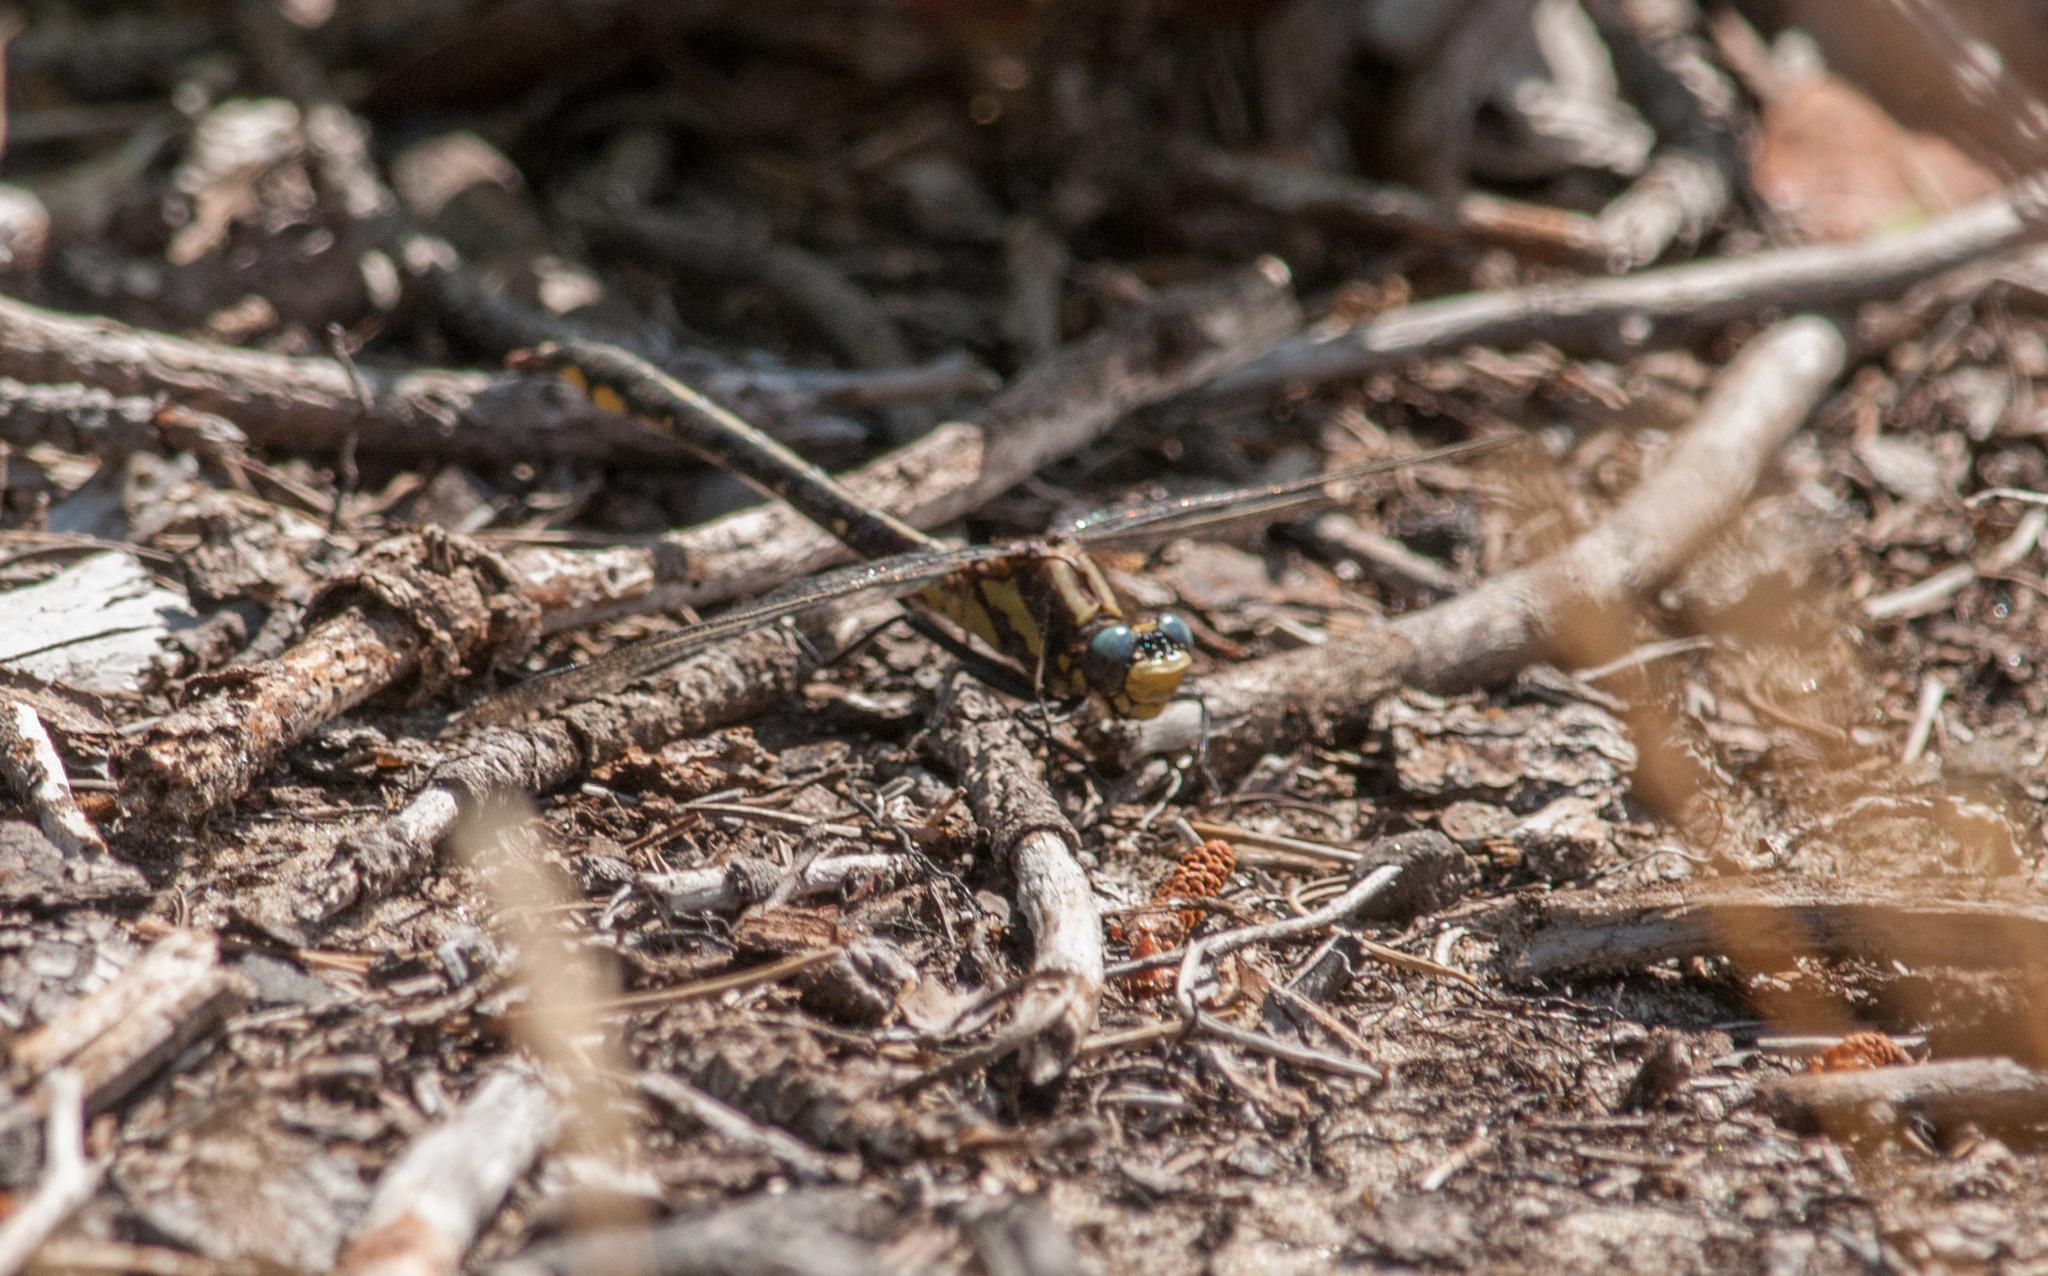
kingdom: Animalia
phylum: Arthropoda
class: Insecta
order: Odonata
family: Gomphidae
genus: Phanogomphus
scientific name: Phanogomphus kurilis
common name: Pacific clubtail
